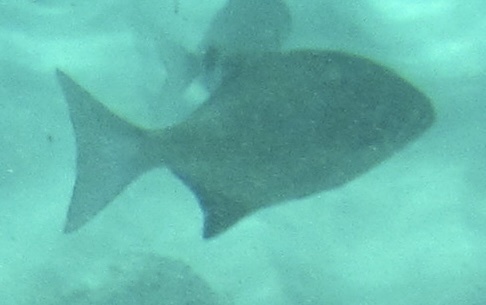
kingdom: Animalia
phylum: Chordata
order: Perciformes
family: Kyphosidae
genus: Neoscorpis
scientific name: Neoscorpis lithophilus
